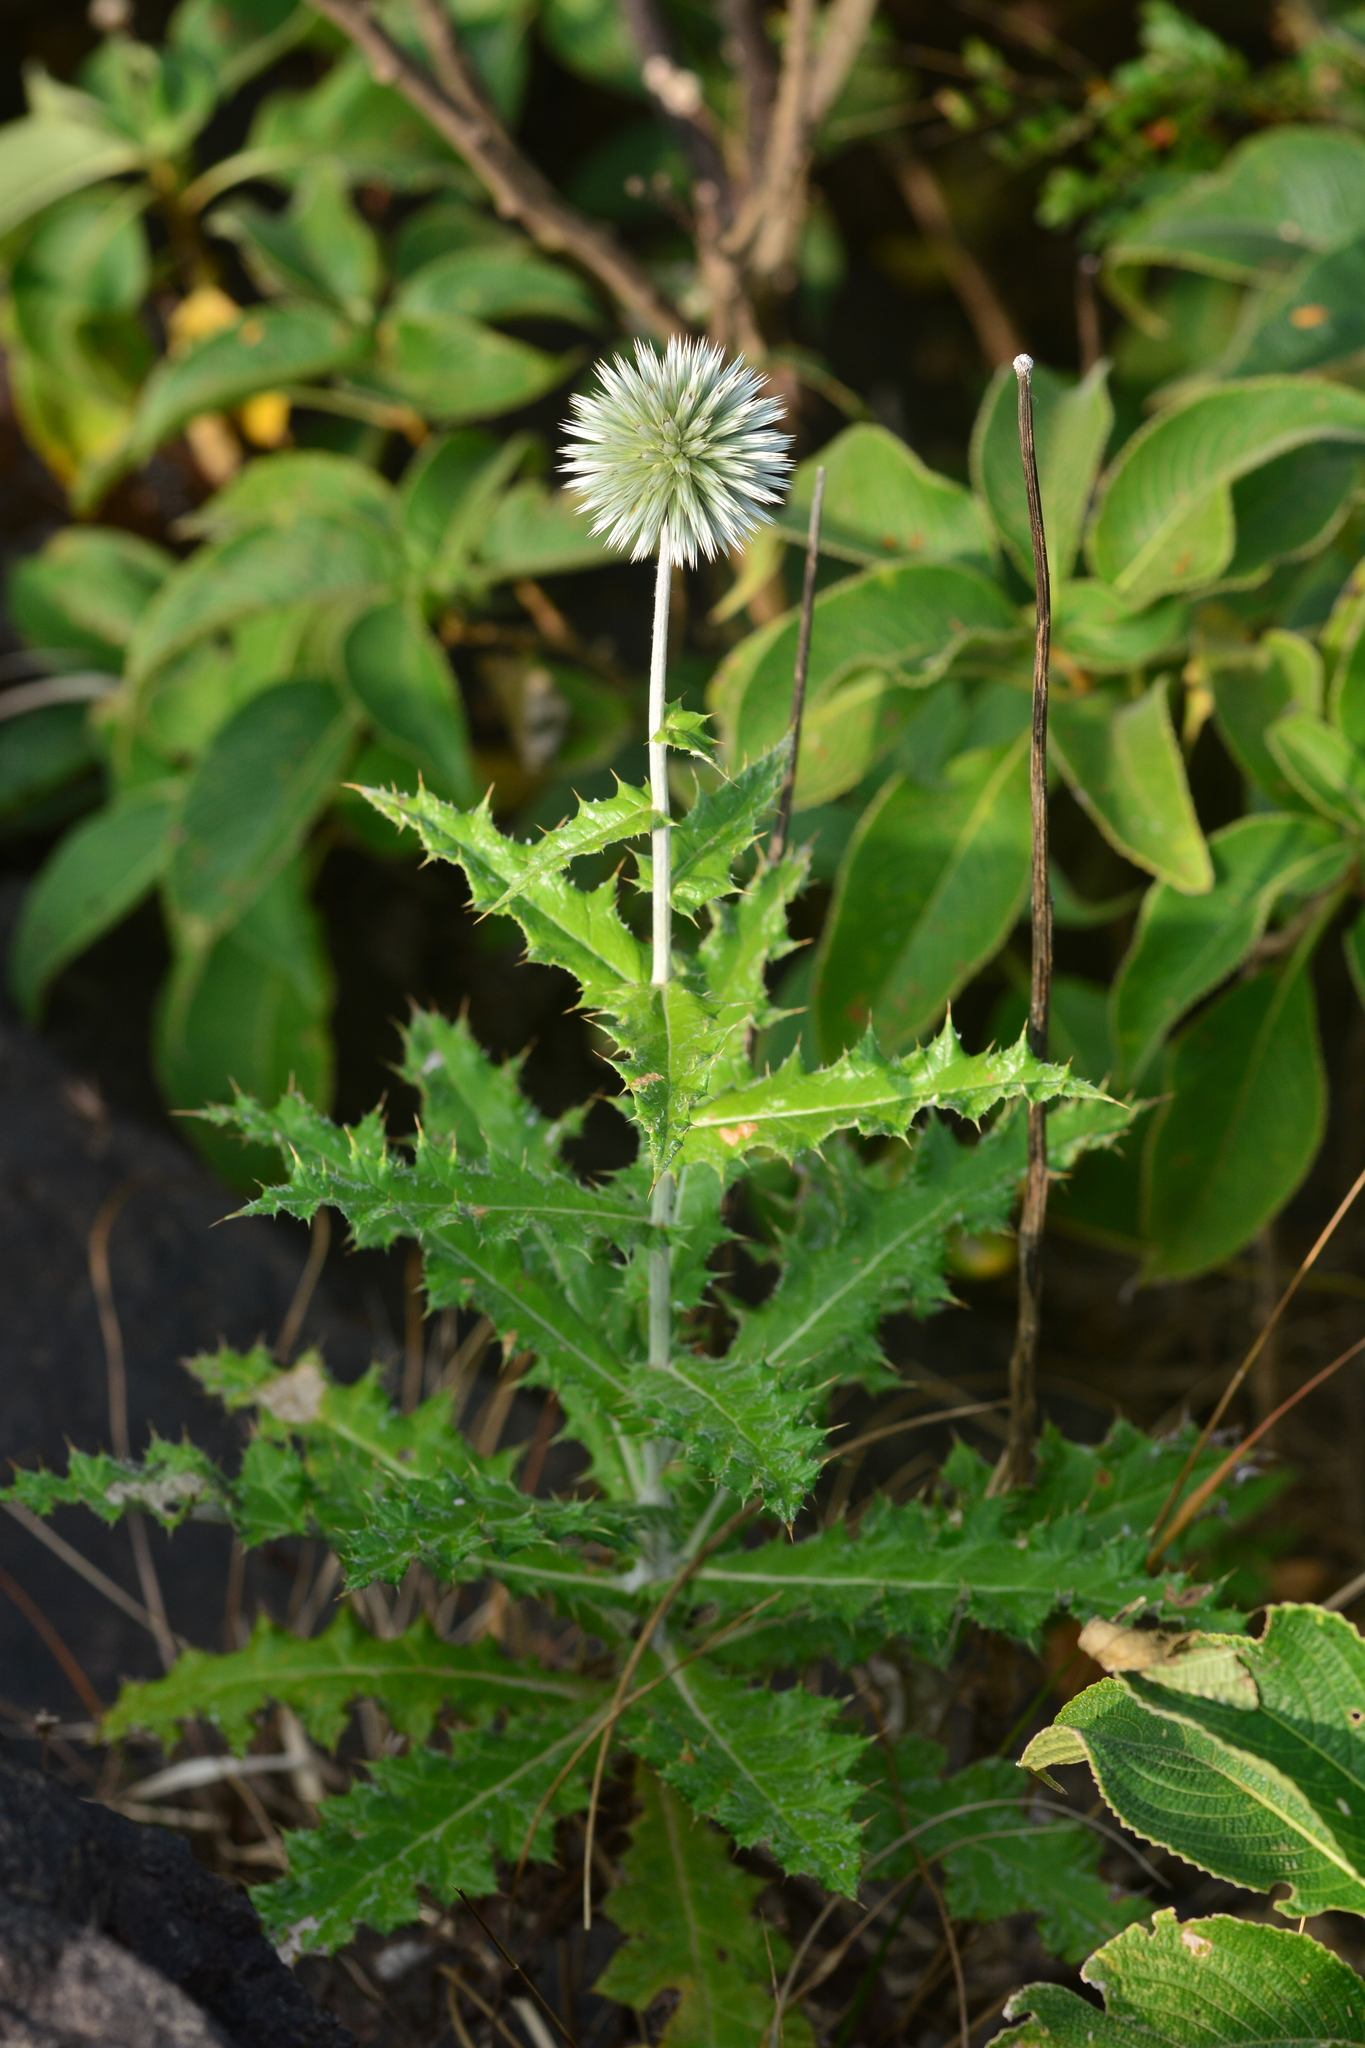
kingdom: Plantae
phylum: Tracheophyta
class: Magnoliopsida
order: Asterales
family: Asteraceae
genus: Echinops
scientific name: Echinops sahyadricus
